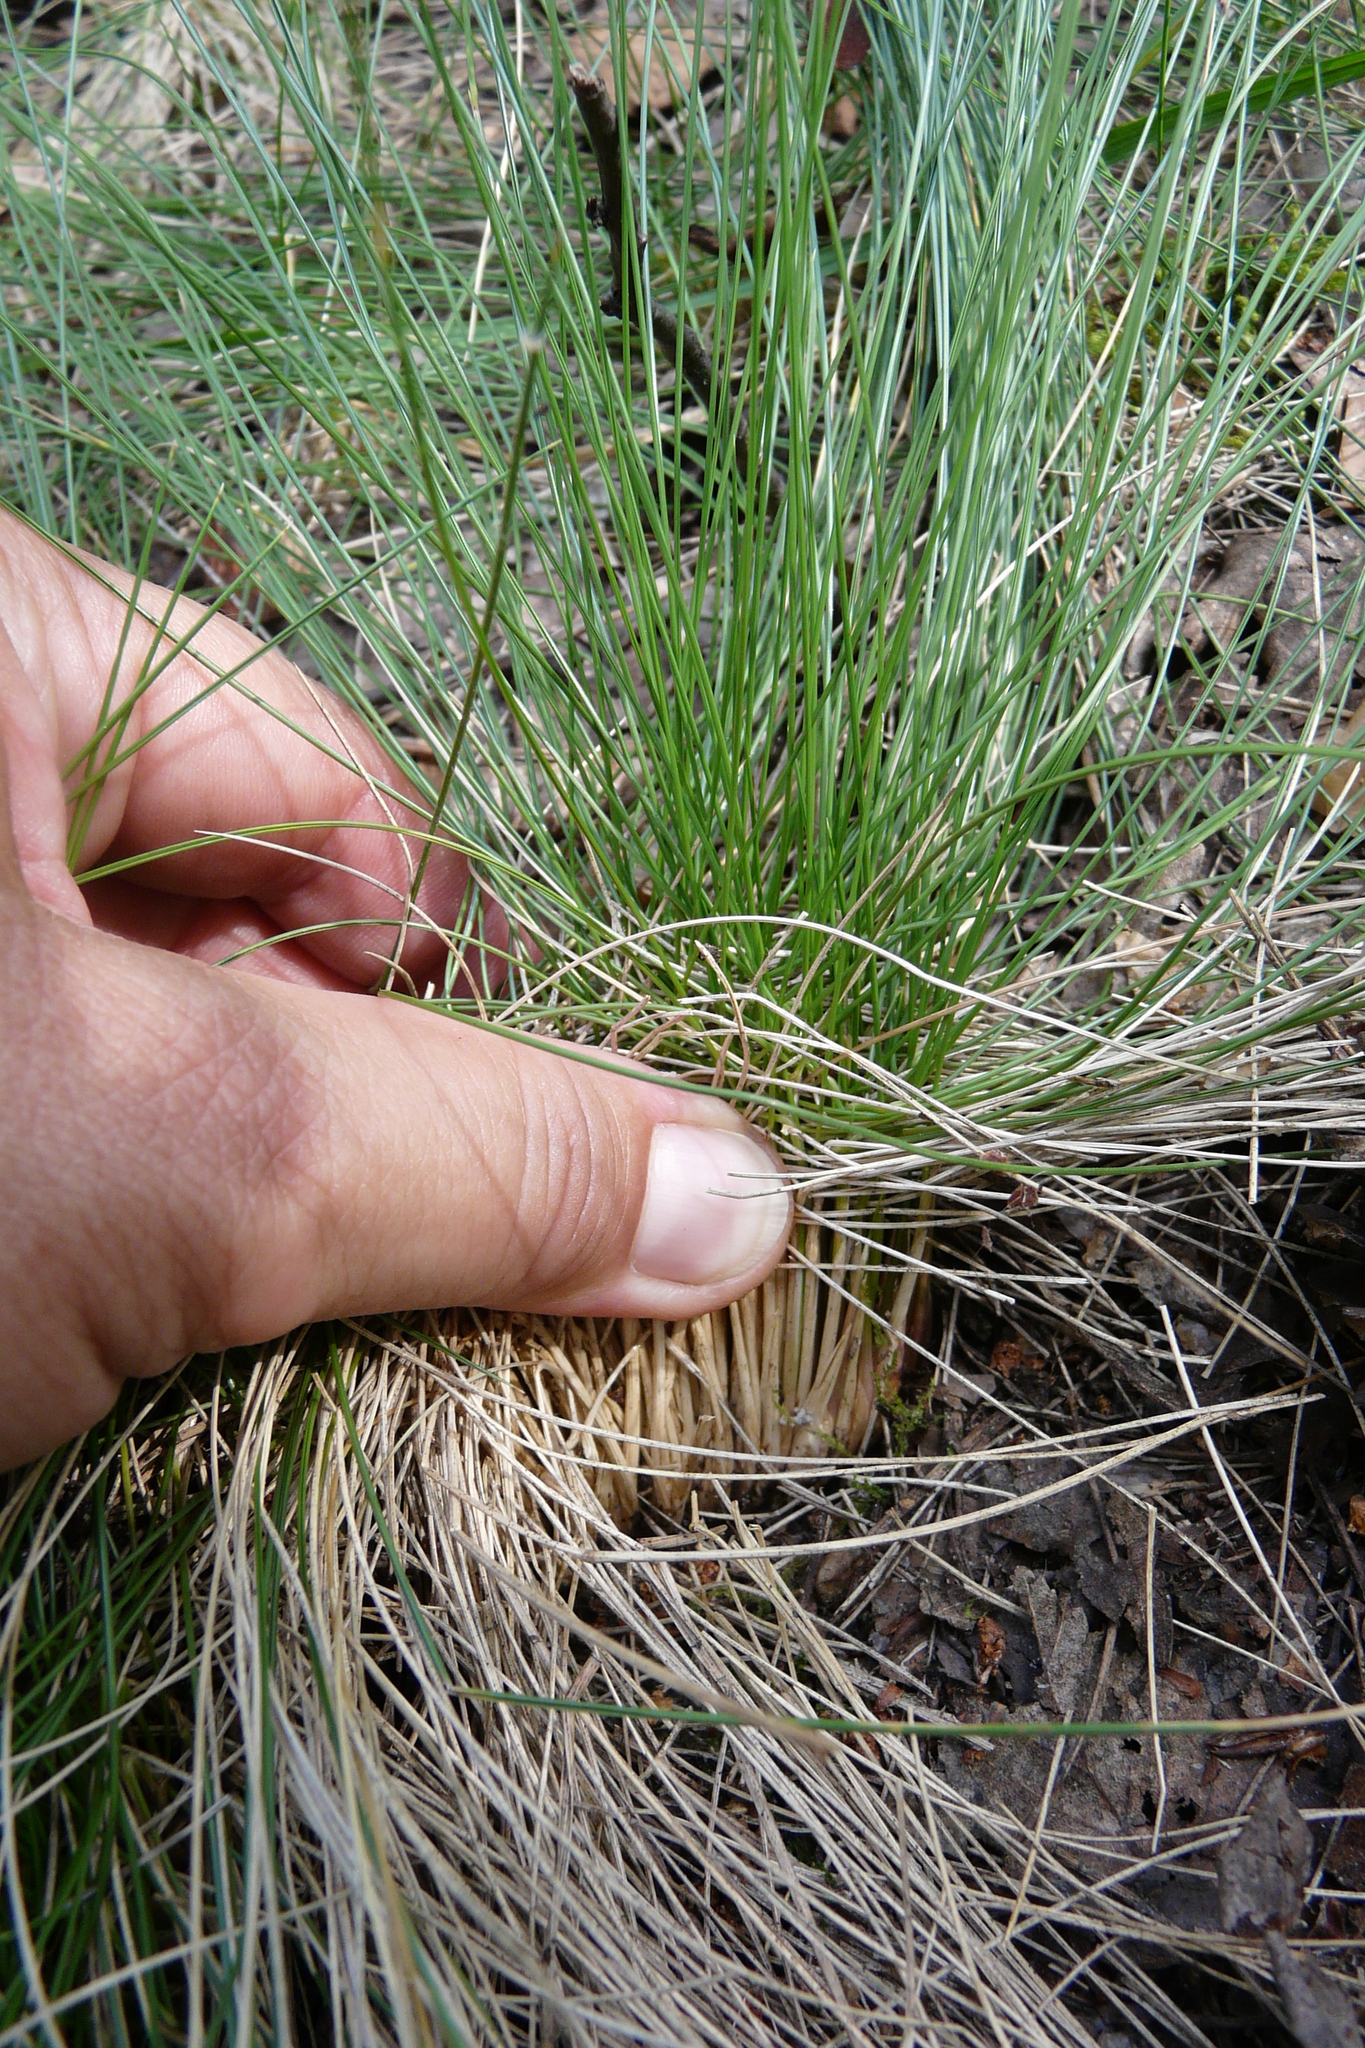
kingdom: Plantae
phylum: Tracheophyta
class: Liliopsida
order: Poales
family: Poaceae
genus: Nardus
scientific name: Nardus stricta
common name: Mat-grass
